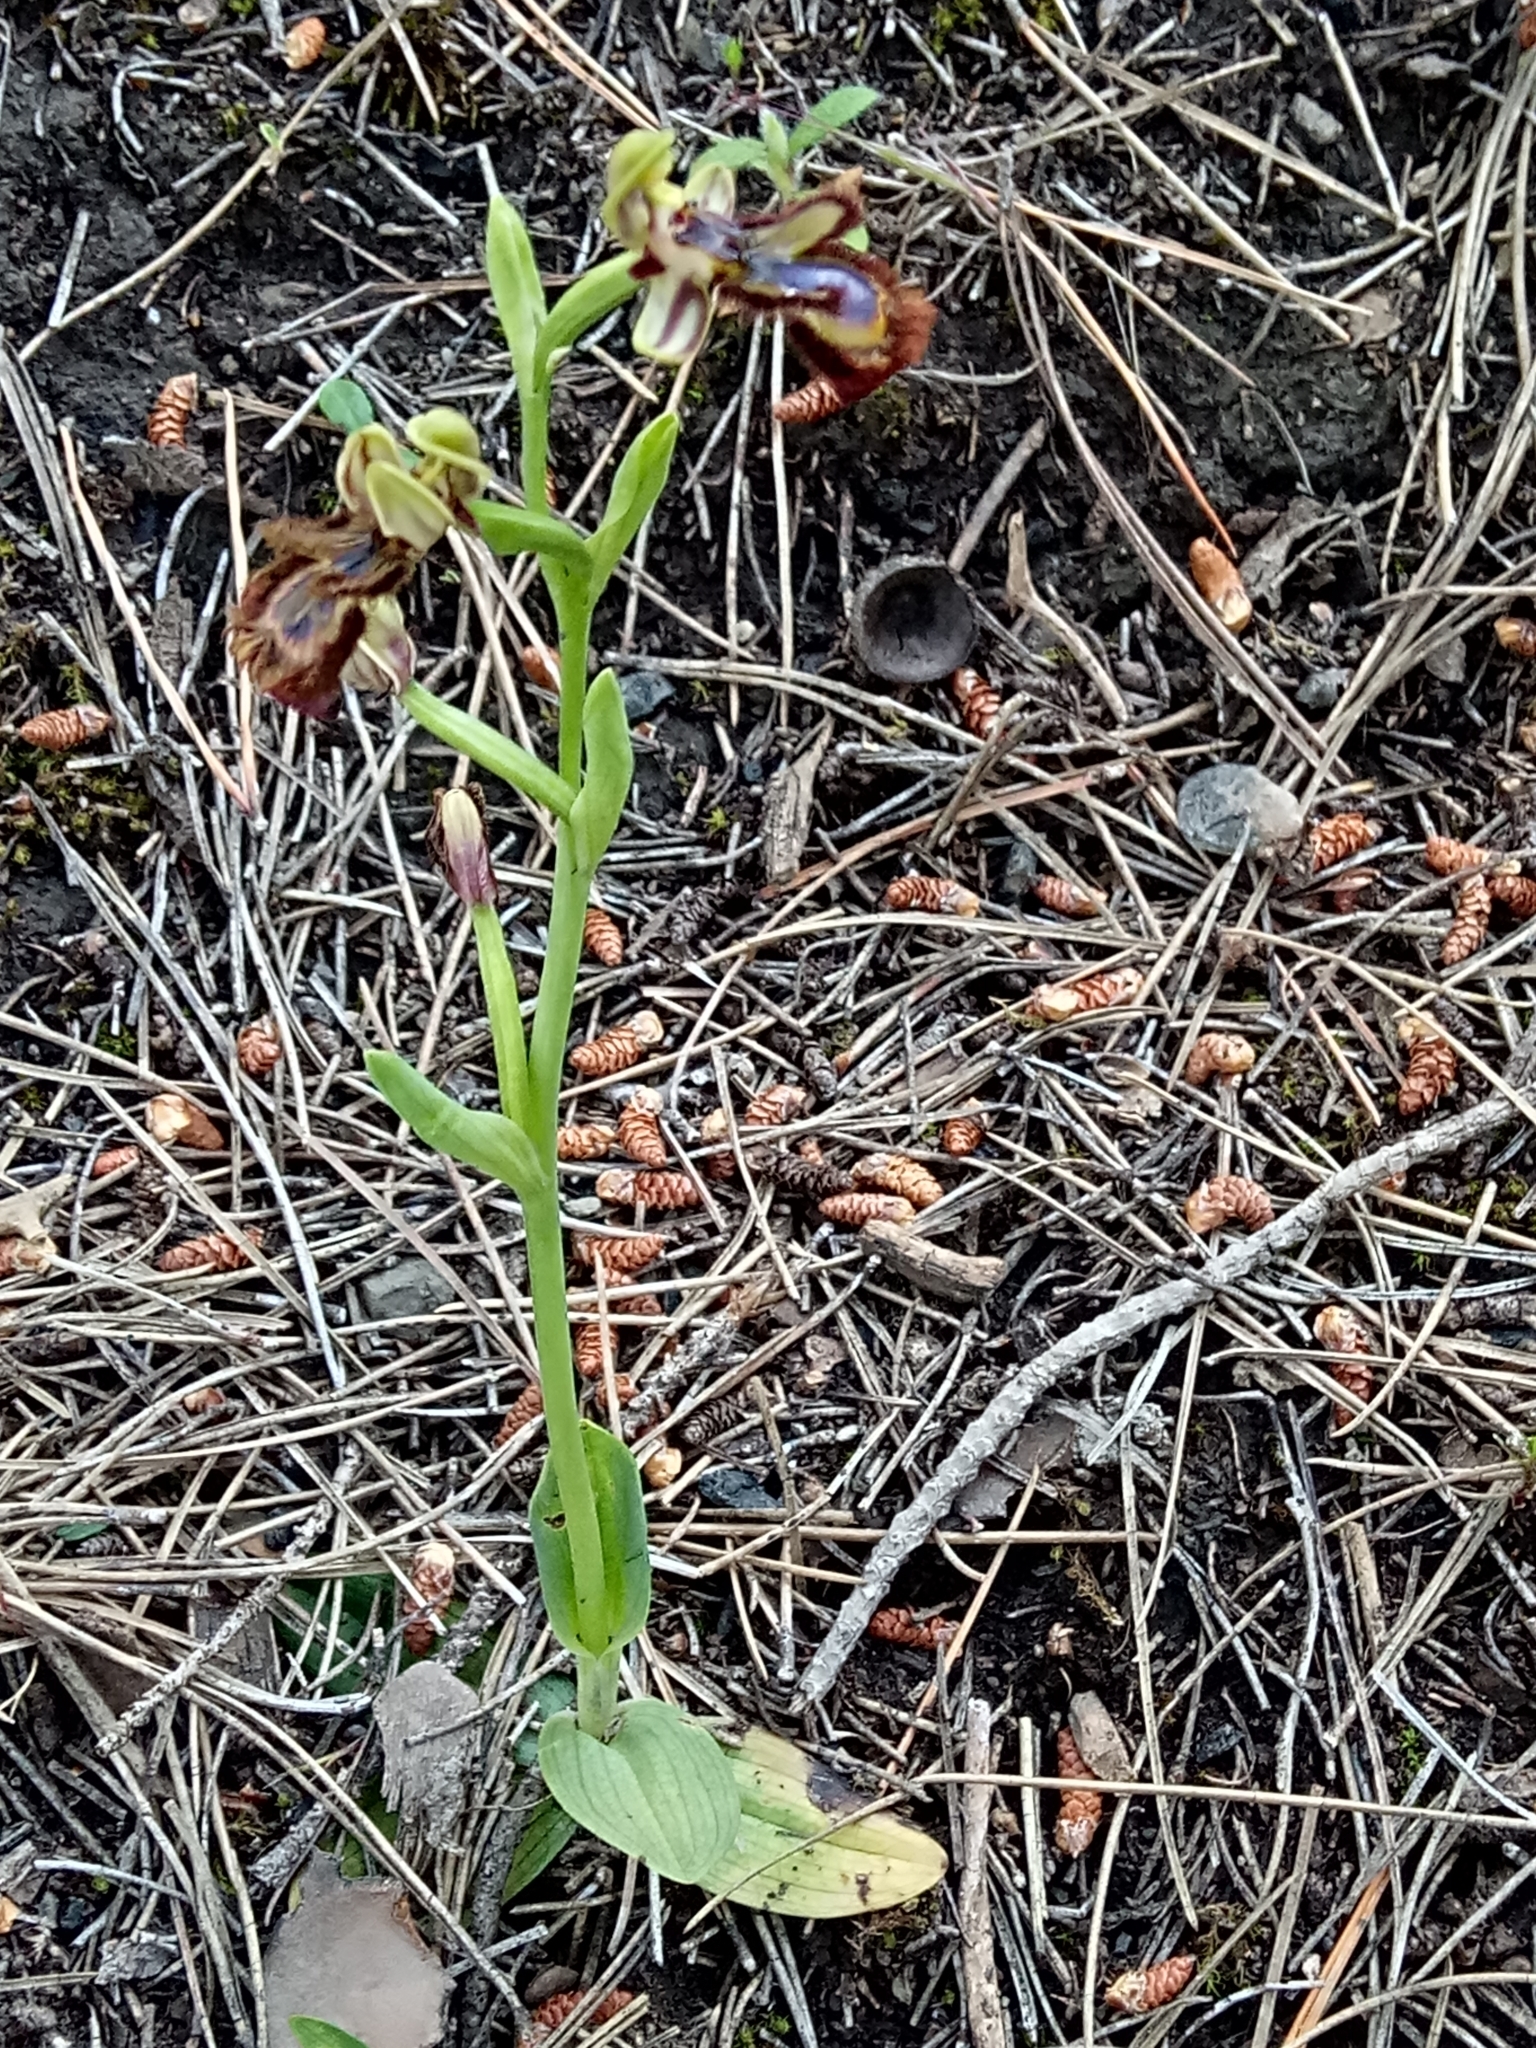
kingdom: Plantae
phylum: Tracheophyta
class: Liliopsida
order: Asparagales
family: Orchidaceae
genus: Ophrys
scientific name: Ophrys speculum
